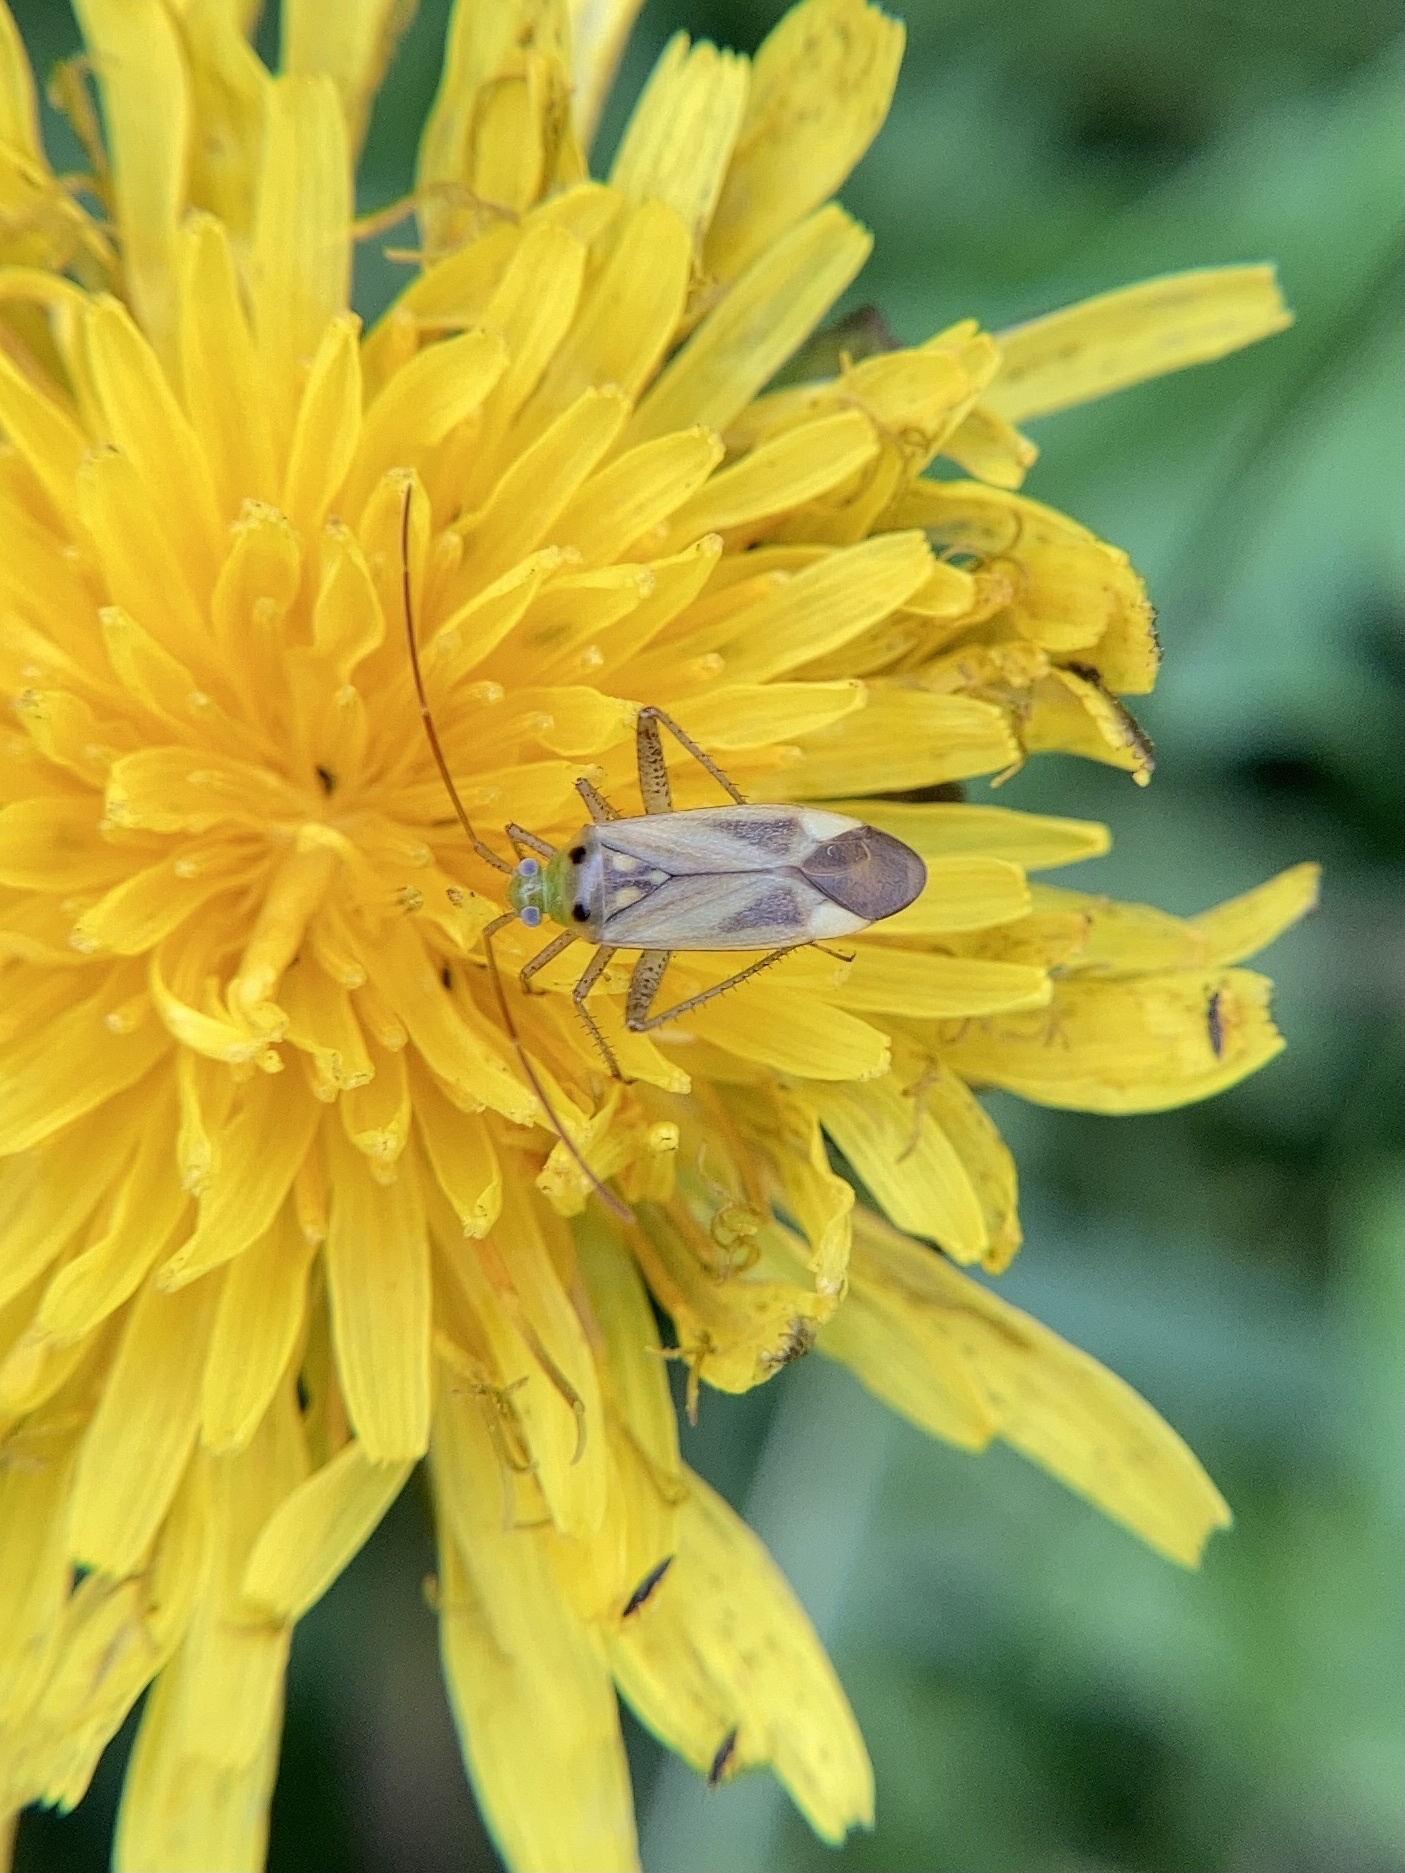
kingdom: Animalia
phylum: Arthropoda
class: Insecta
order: Hemiptera
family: Miridae
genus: Adelphocoris
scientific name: Adelphocoris lineolatus
